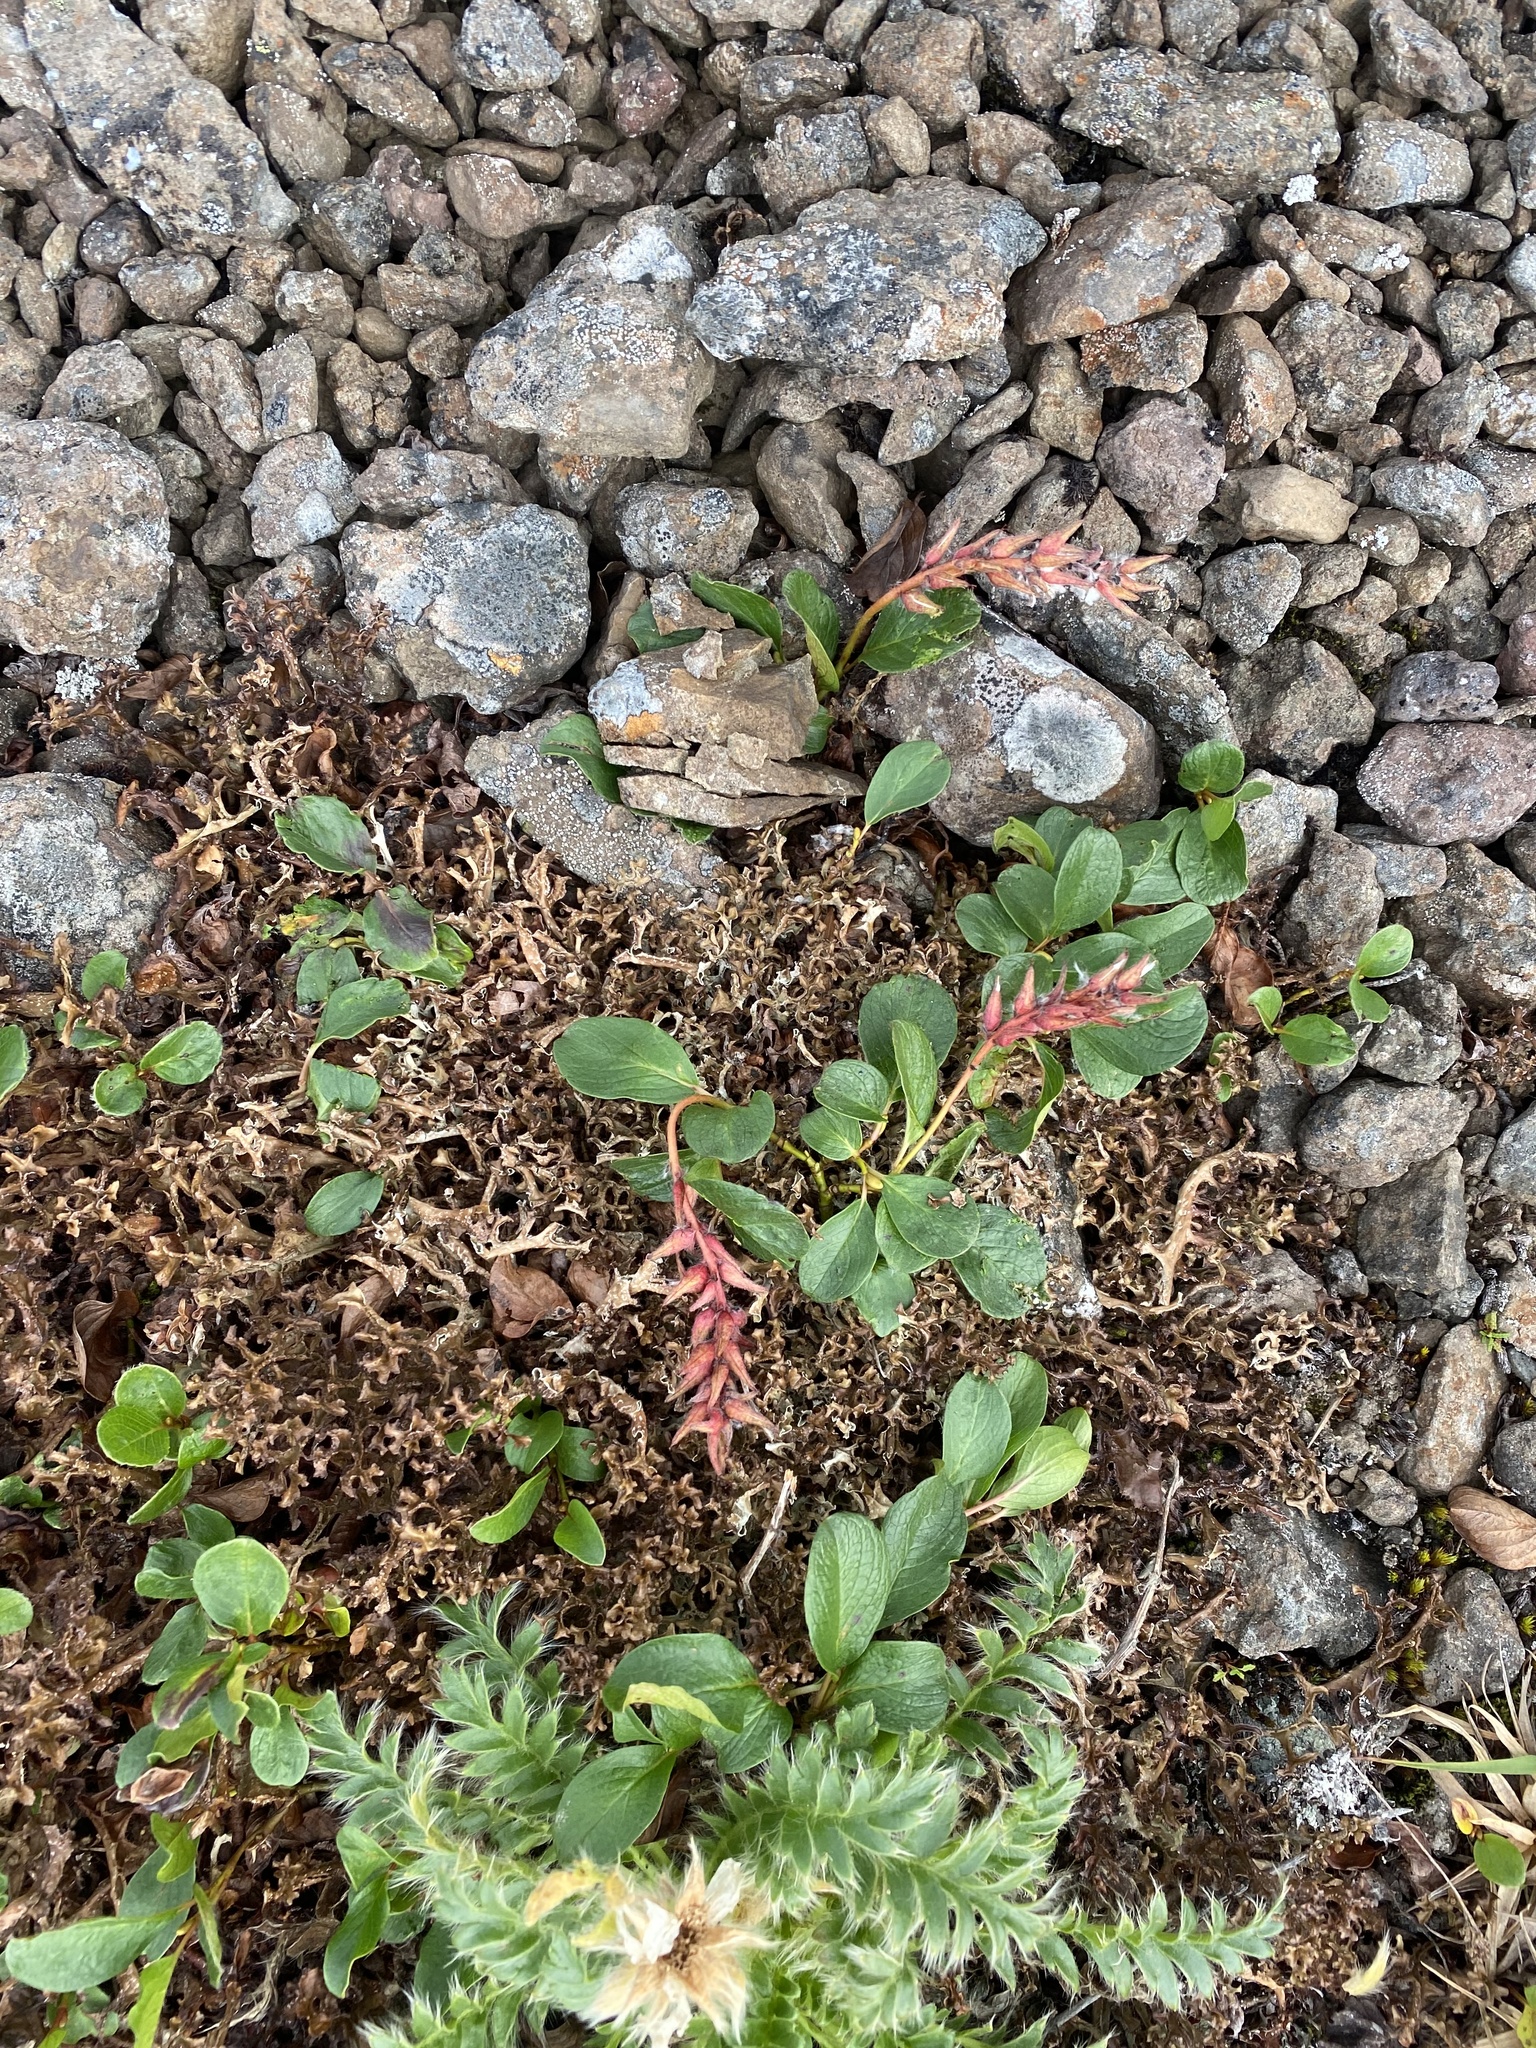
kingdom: Plantae
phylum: Tracheophyta
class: Magnoliopsida
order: Malpighiales
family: Salicaceae
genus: Salix
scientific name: Salix polaris
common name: Polar willow
